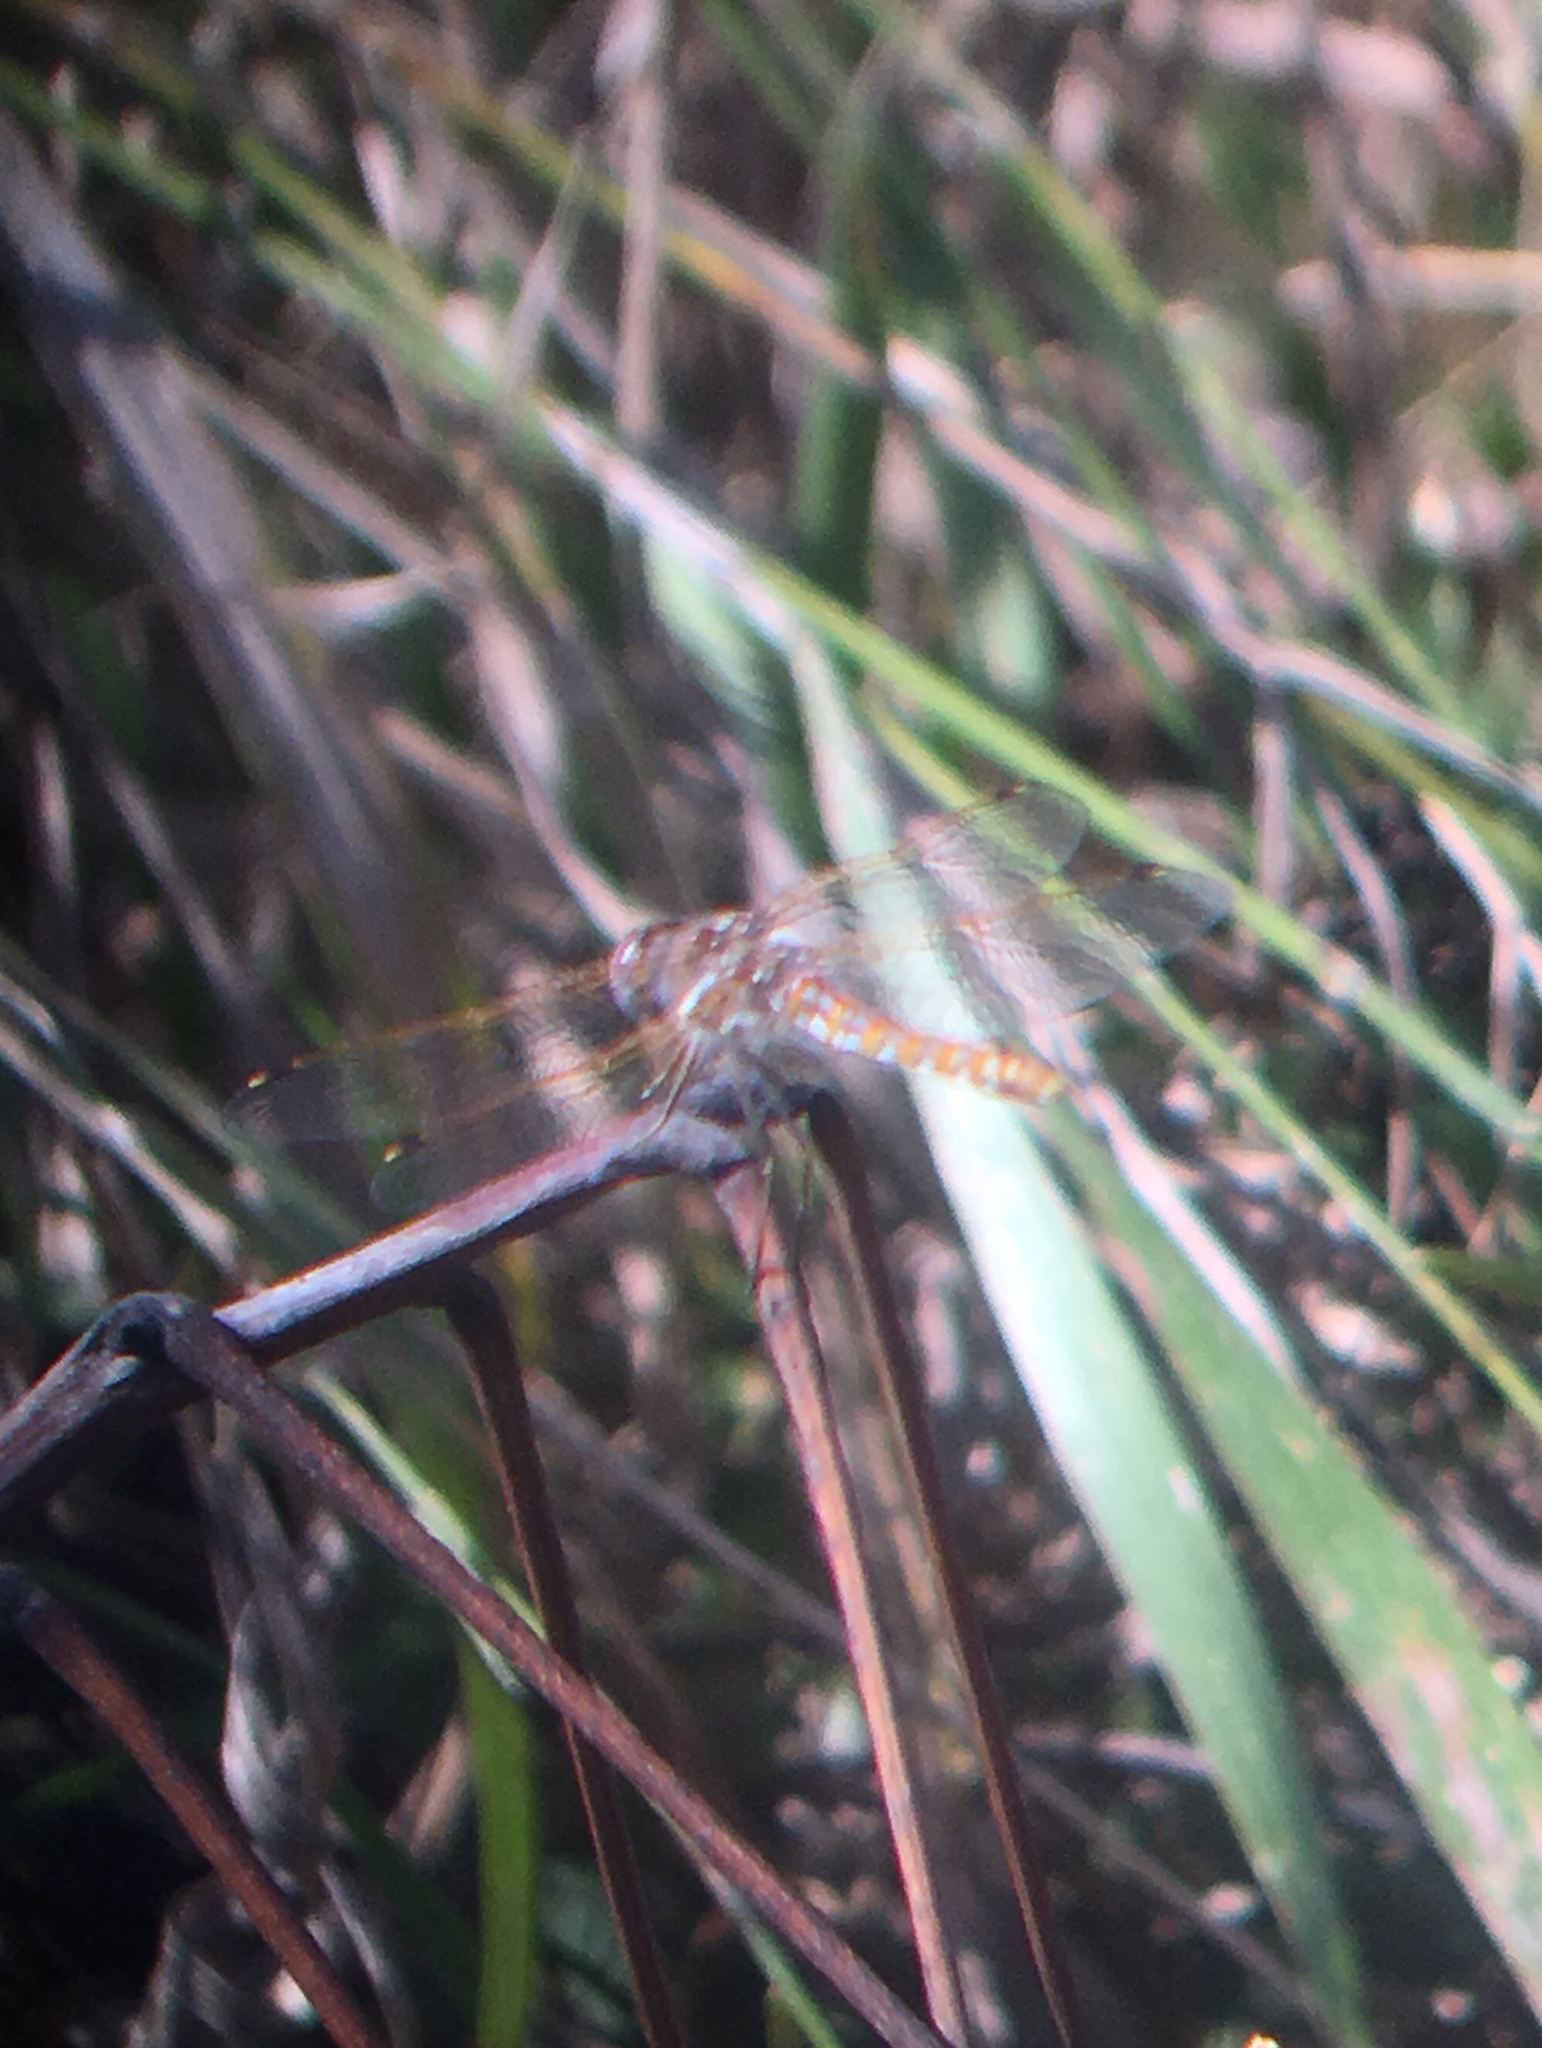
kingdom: Animalia
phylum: Arthropoda
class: Insecta
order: Odonata
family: Libellulidae
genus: Sympetrum
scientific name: Sympetrum corruptum
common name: Variegated meadowhawk
